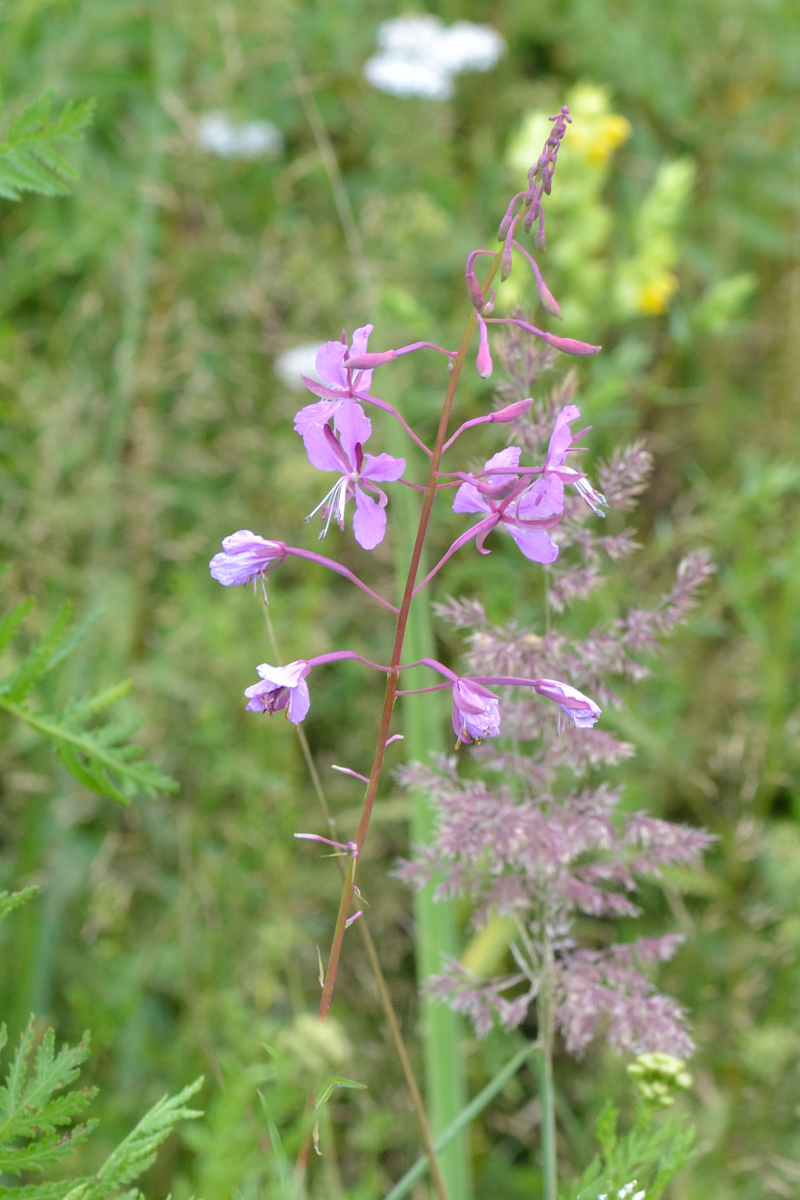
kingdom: Plantae
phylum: Tracheophyta
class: Magnoliopsida
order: Myrtales
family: Onagraceae
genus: Chamaenerion
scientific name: Chamaenerion angustifolium
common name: Fireweed
